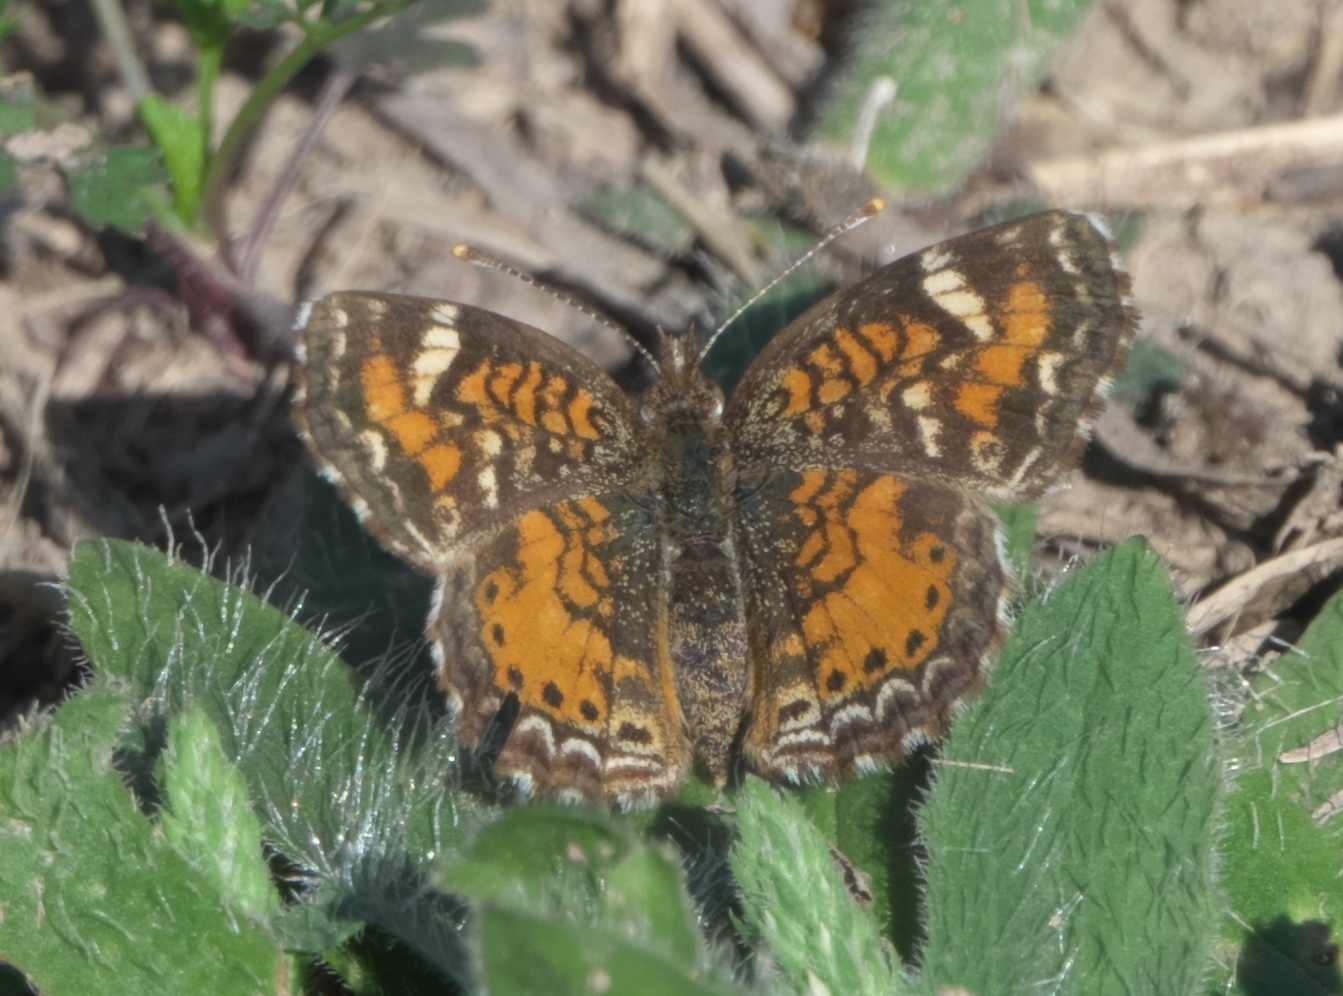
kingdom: Animalia
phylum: Arthropoda
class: Insecta
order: Lepidoptera
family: Nymphalidae
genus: Phyciodes
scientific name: Phyciodes phaon
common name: Phaon crescent
